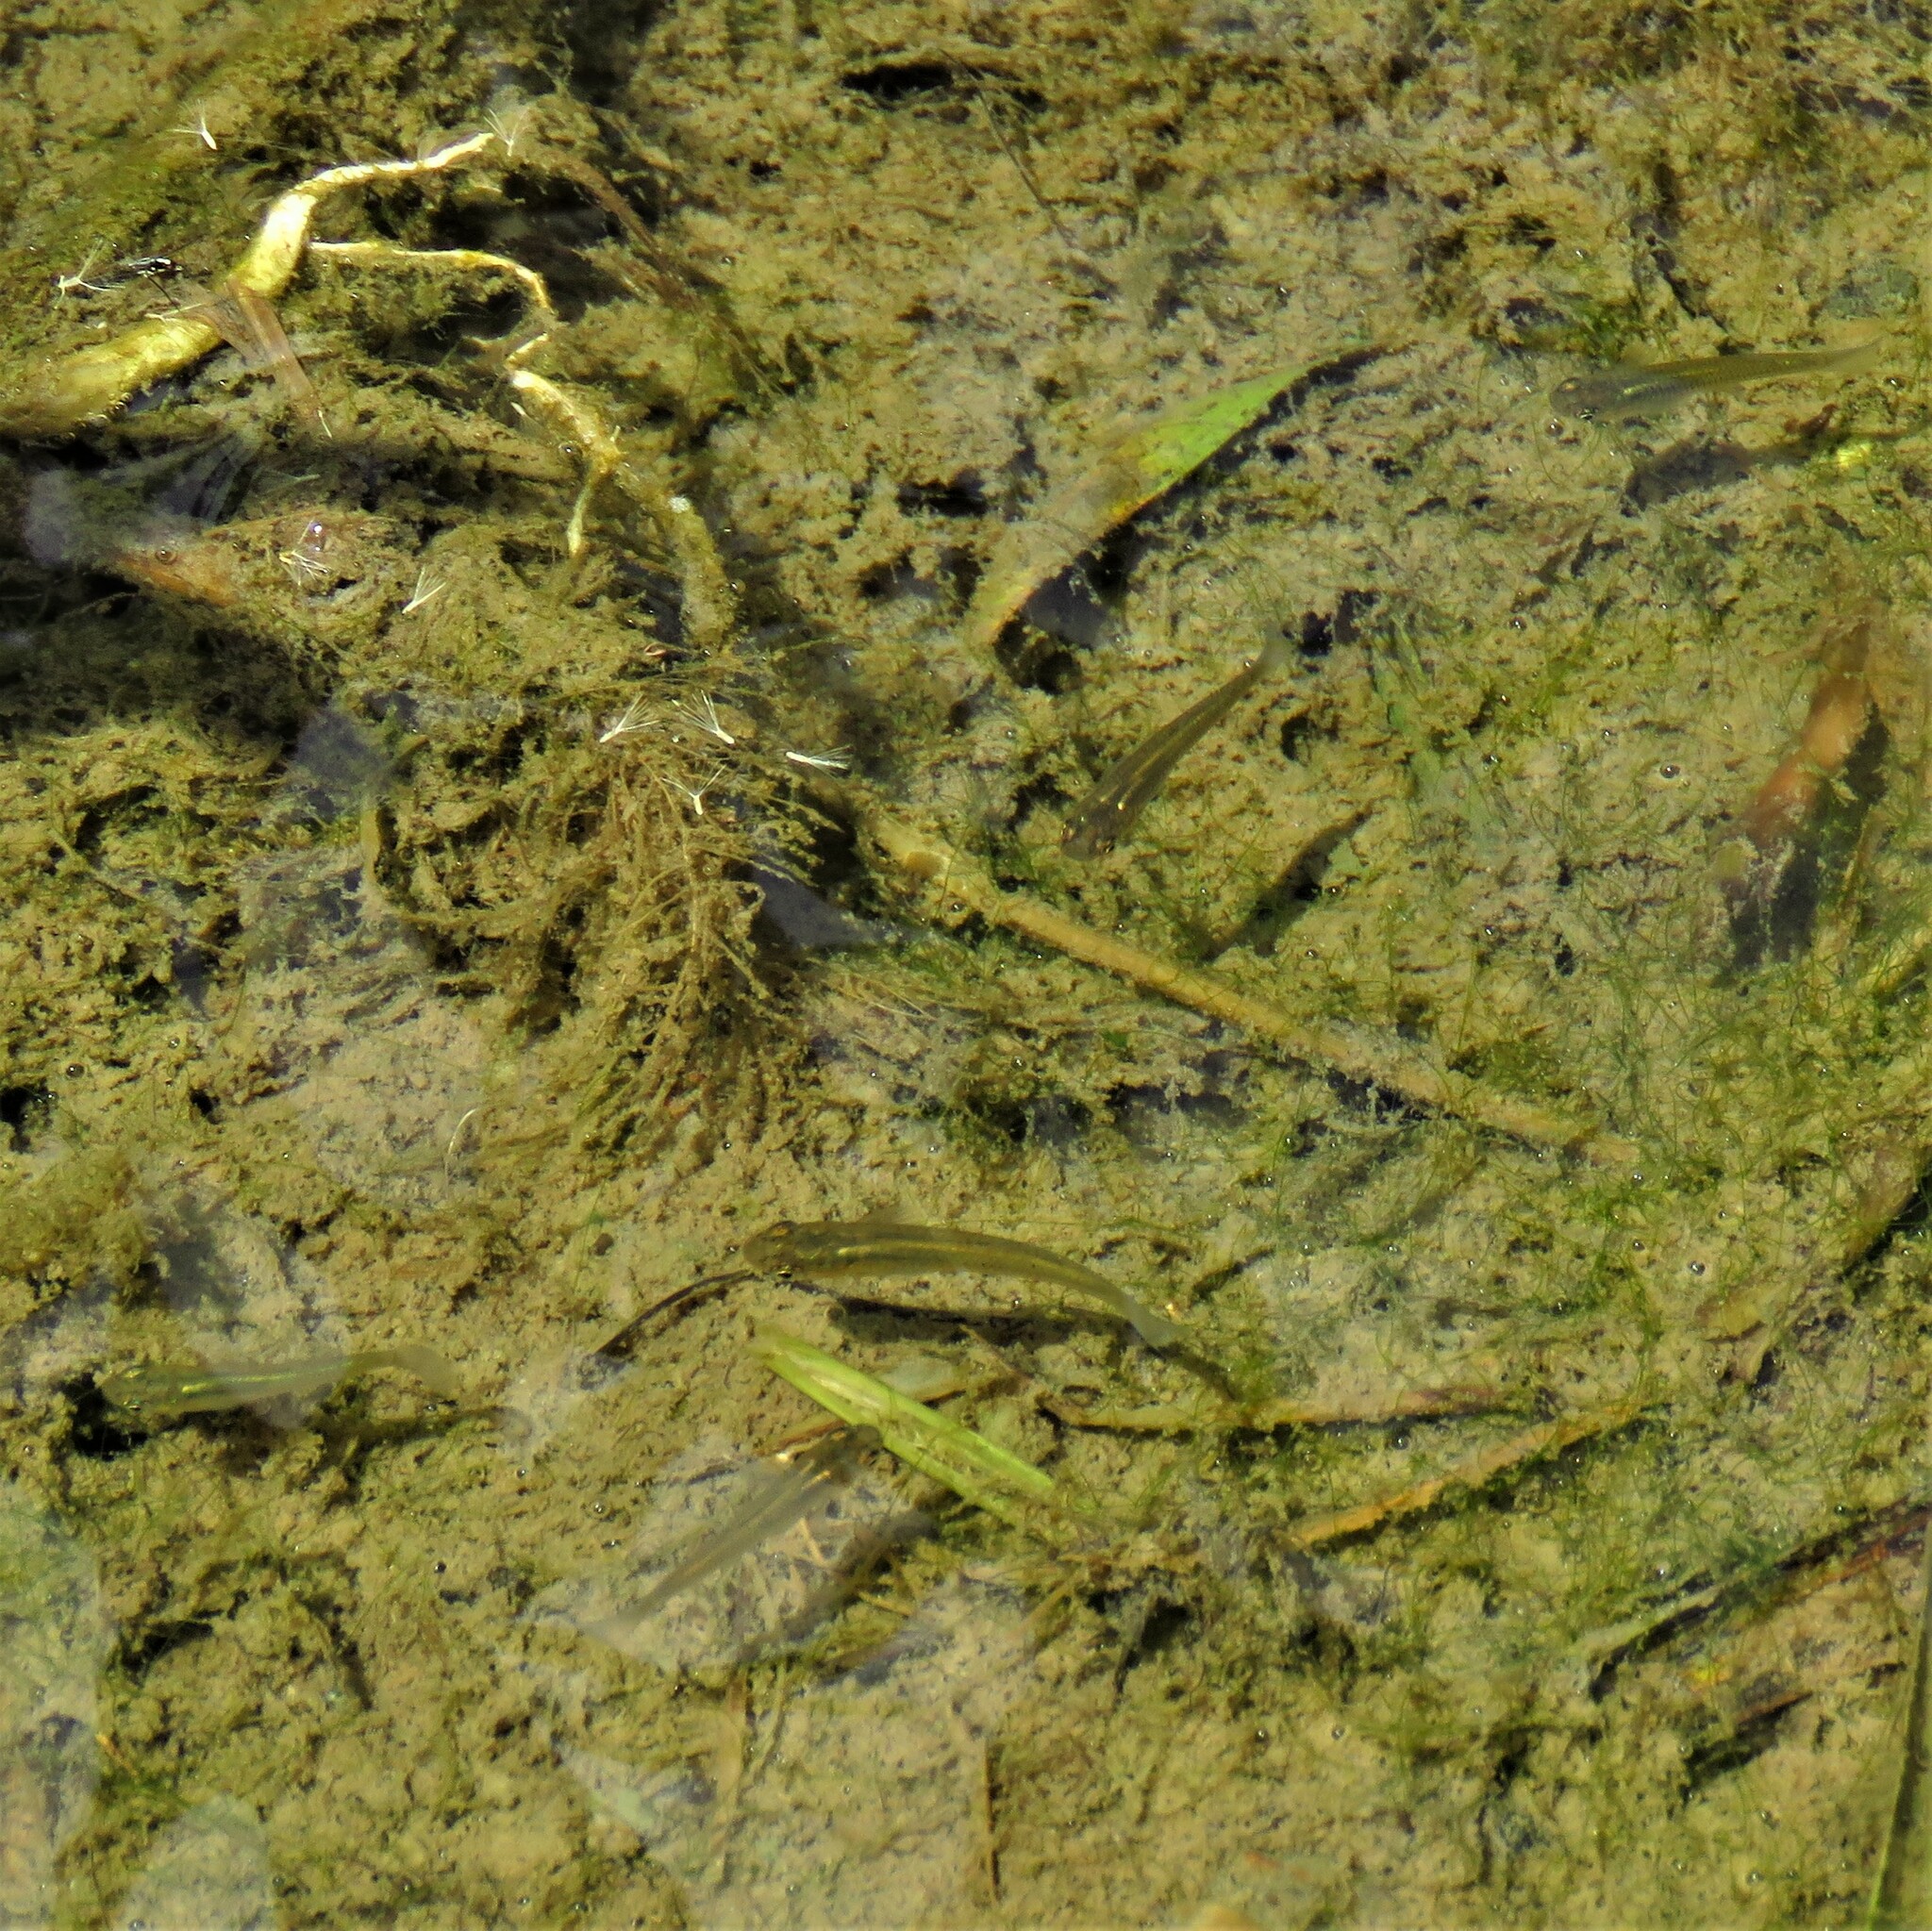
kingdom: Animalia
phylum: Chordata
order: Cyprinodontiformes
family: Poeciliidae
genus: Gambusia
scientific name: Gambusia affinis
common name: Mosquitofish
